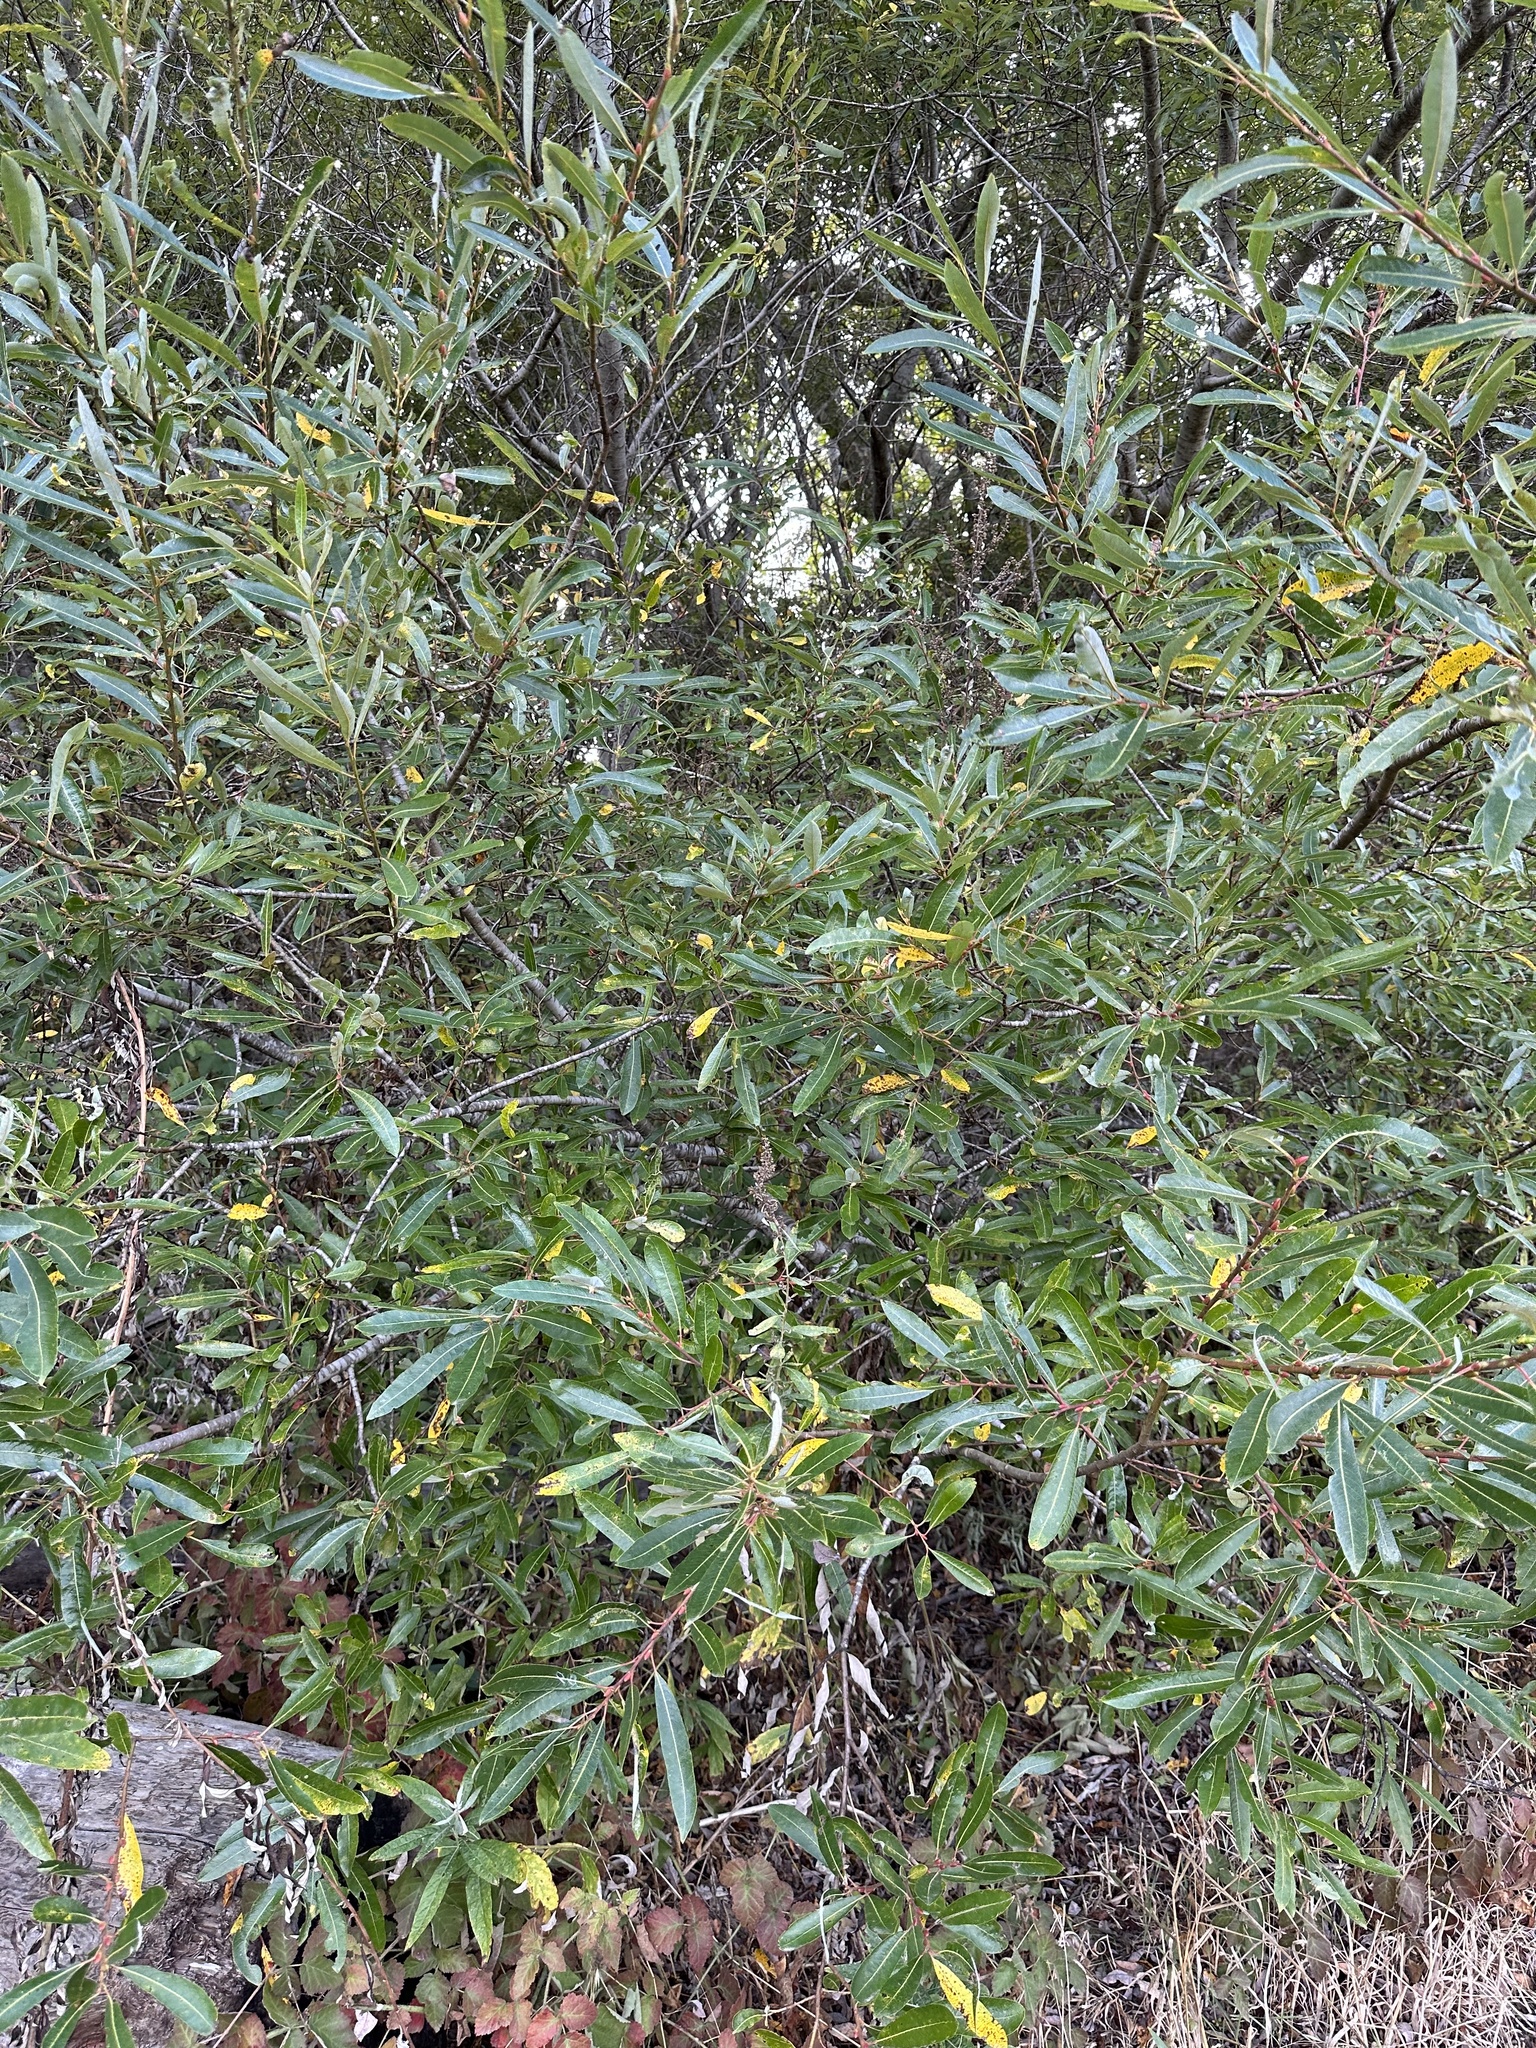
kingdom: Plantae
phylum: Tracheophyta
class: Magnoliopsida
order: Malpighiales
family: Salicaceae
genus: Salix
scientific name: Salix lasiolepis
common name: Arroyo willow
